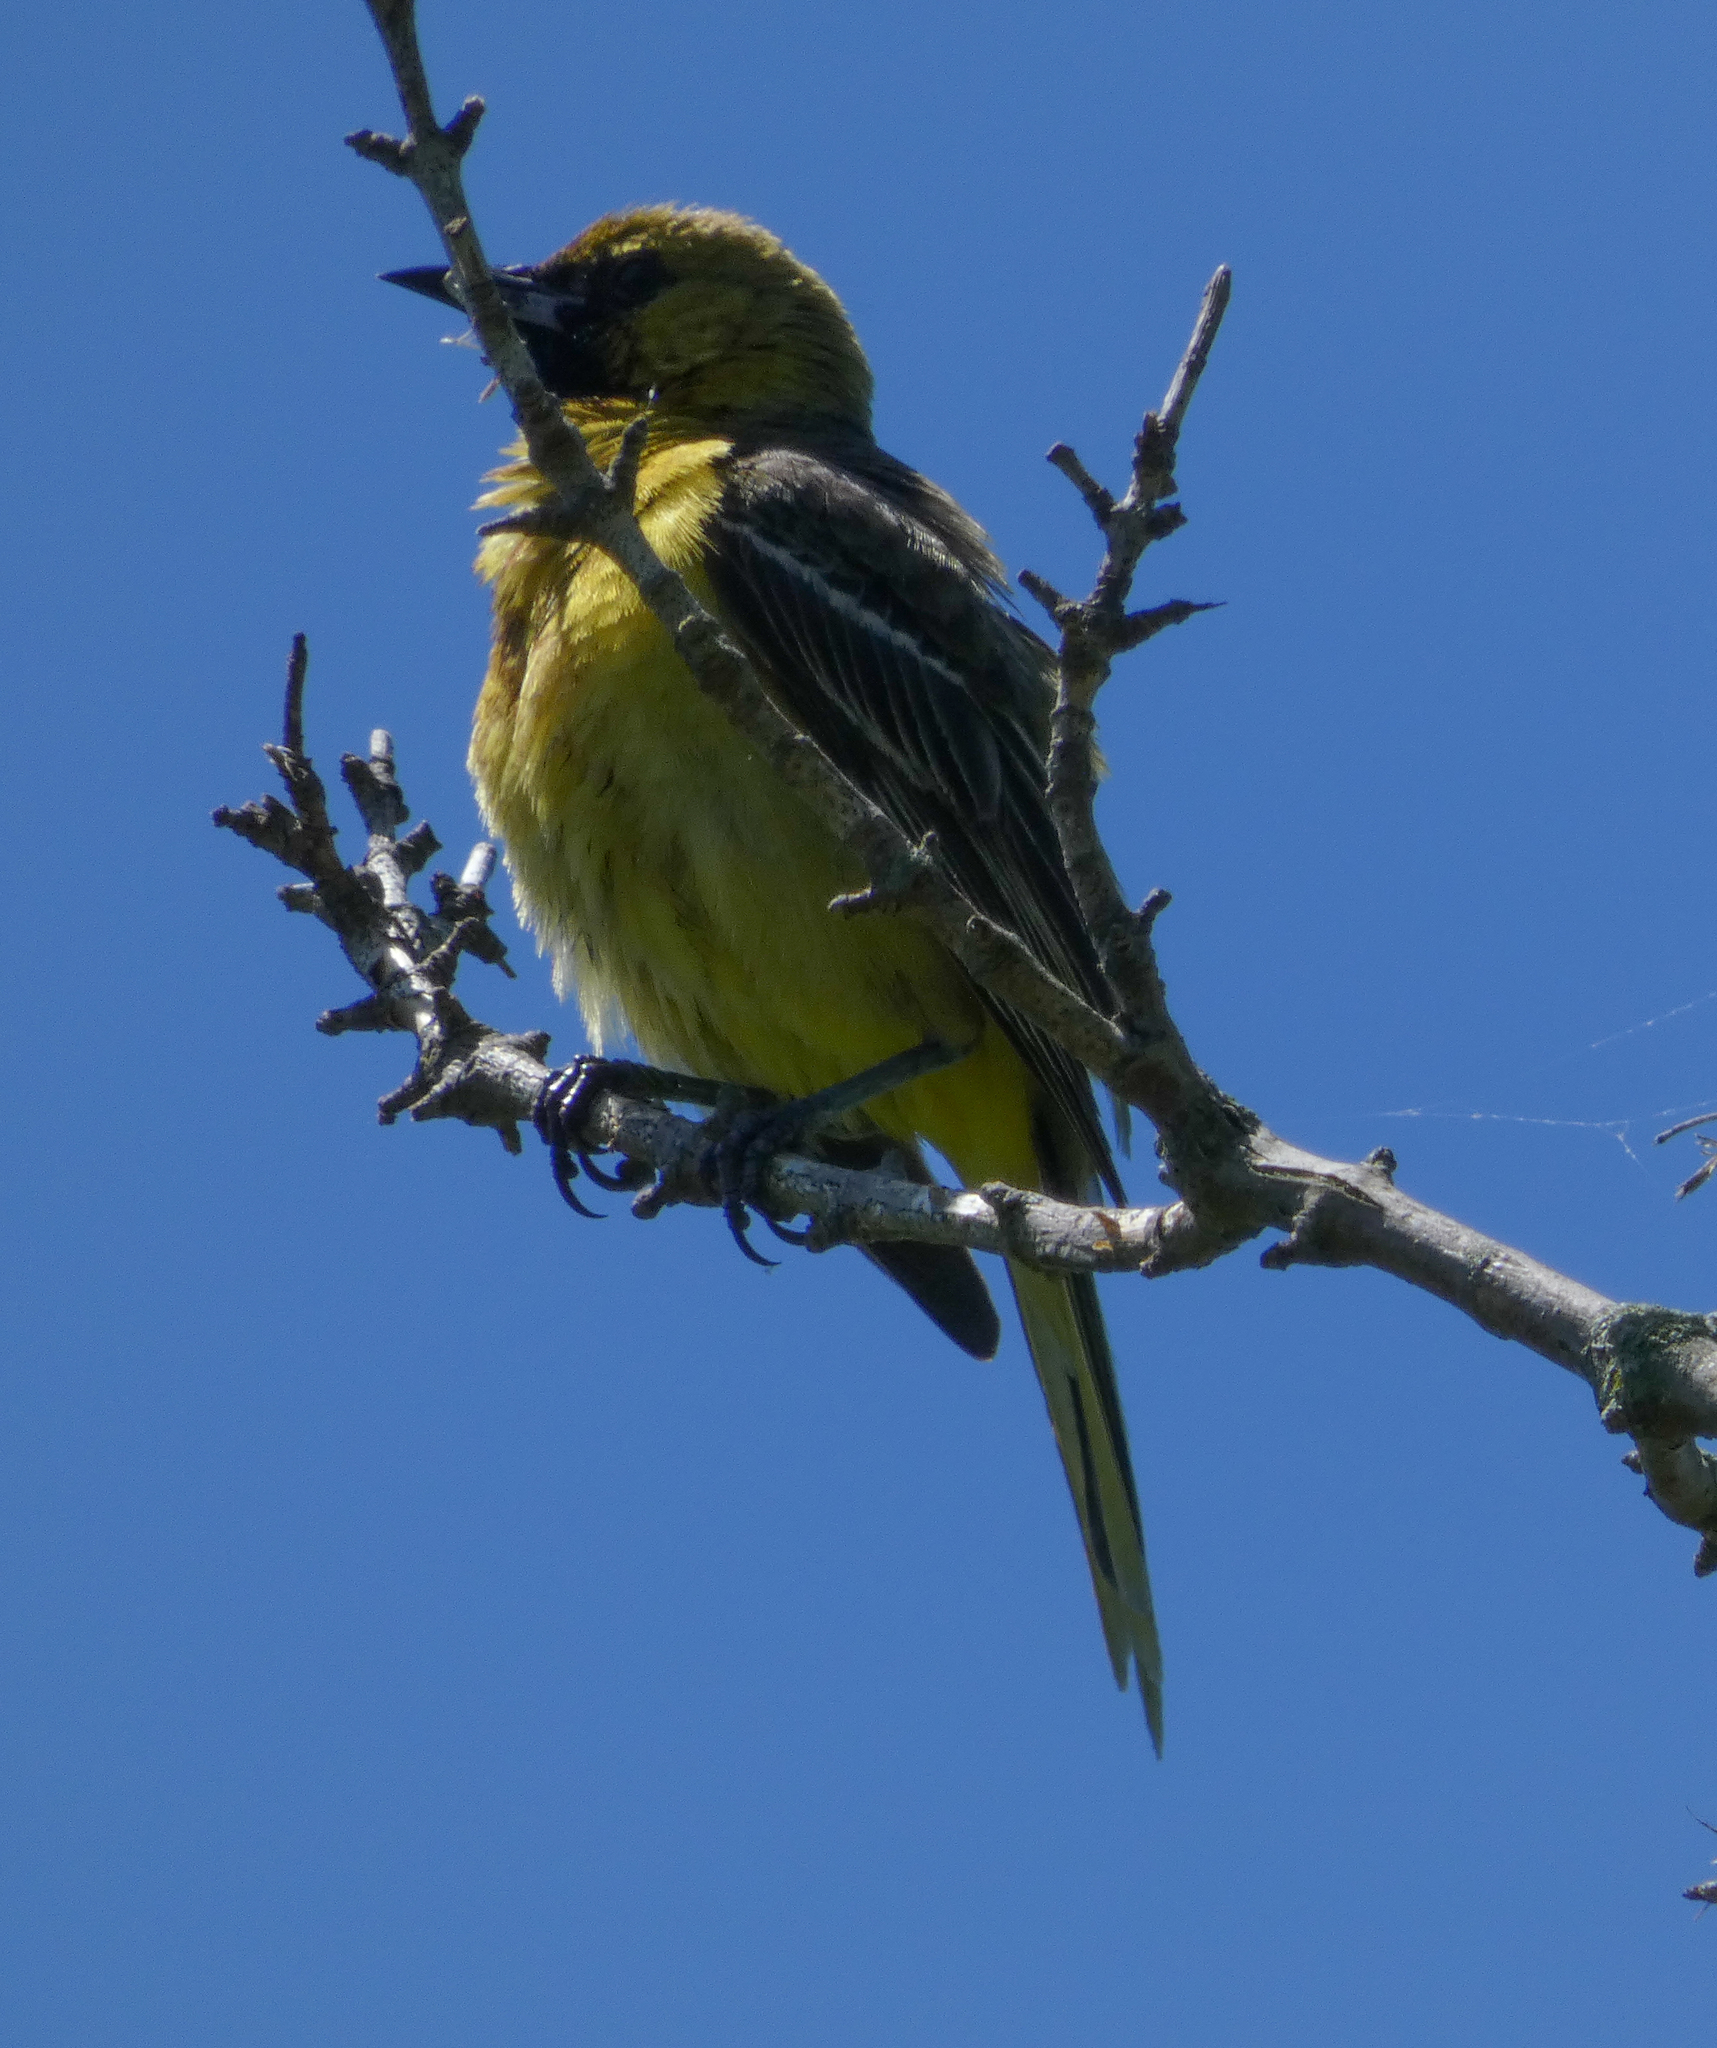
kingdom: Animalia
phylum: Chordata
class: Aves
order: Passeriformes
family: Icteridae
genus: Icterus
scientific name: Icterus spurius
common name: Orchard oriole
